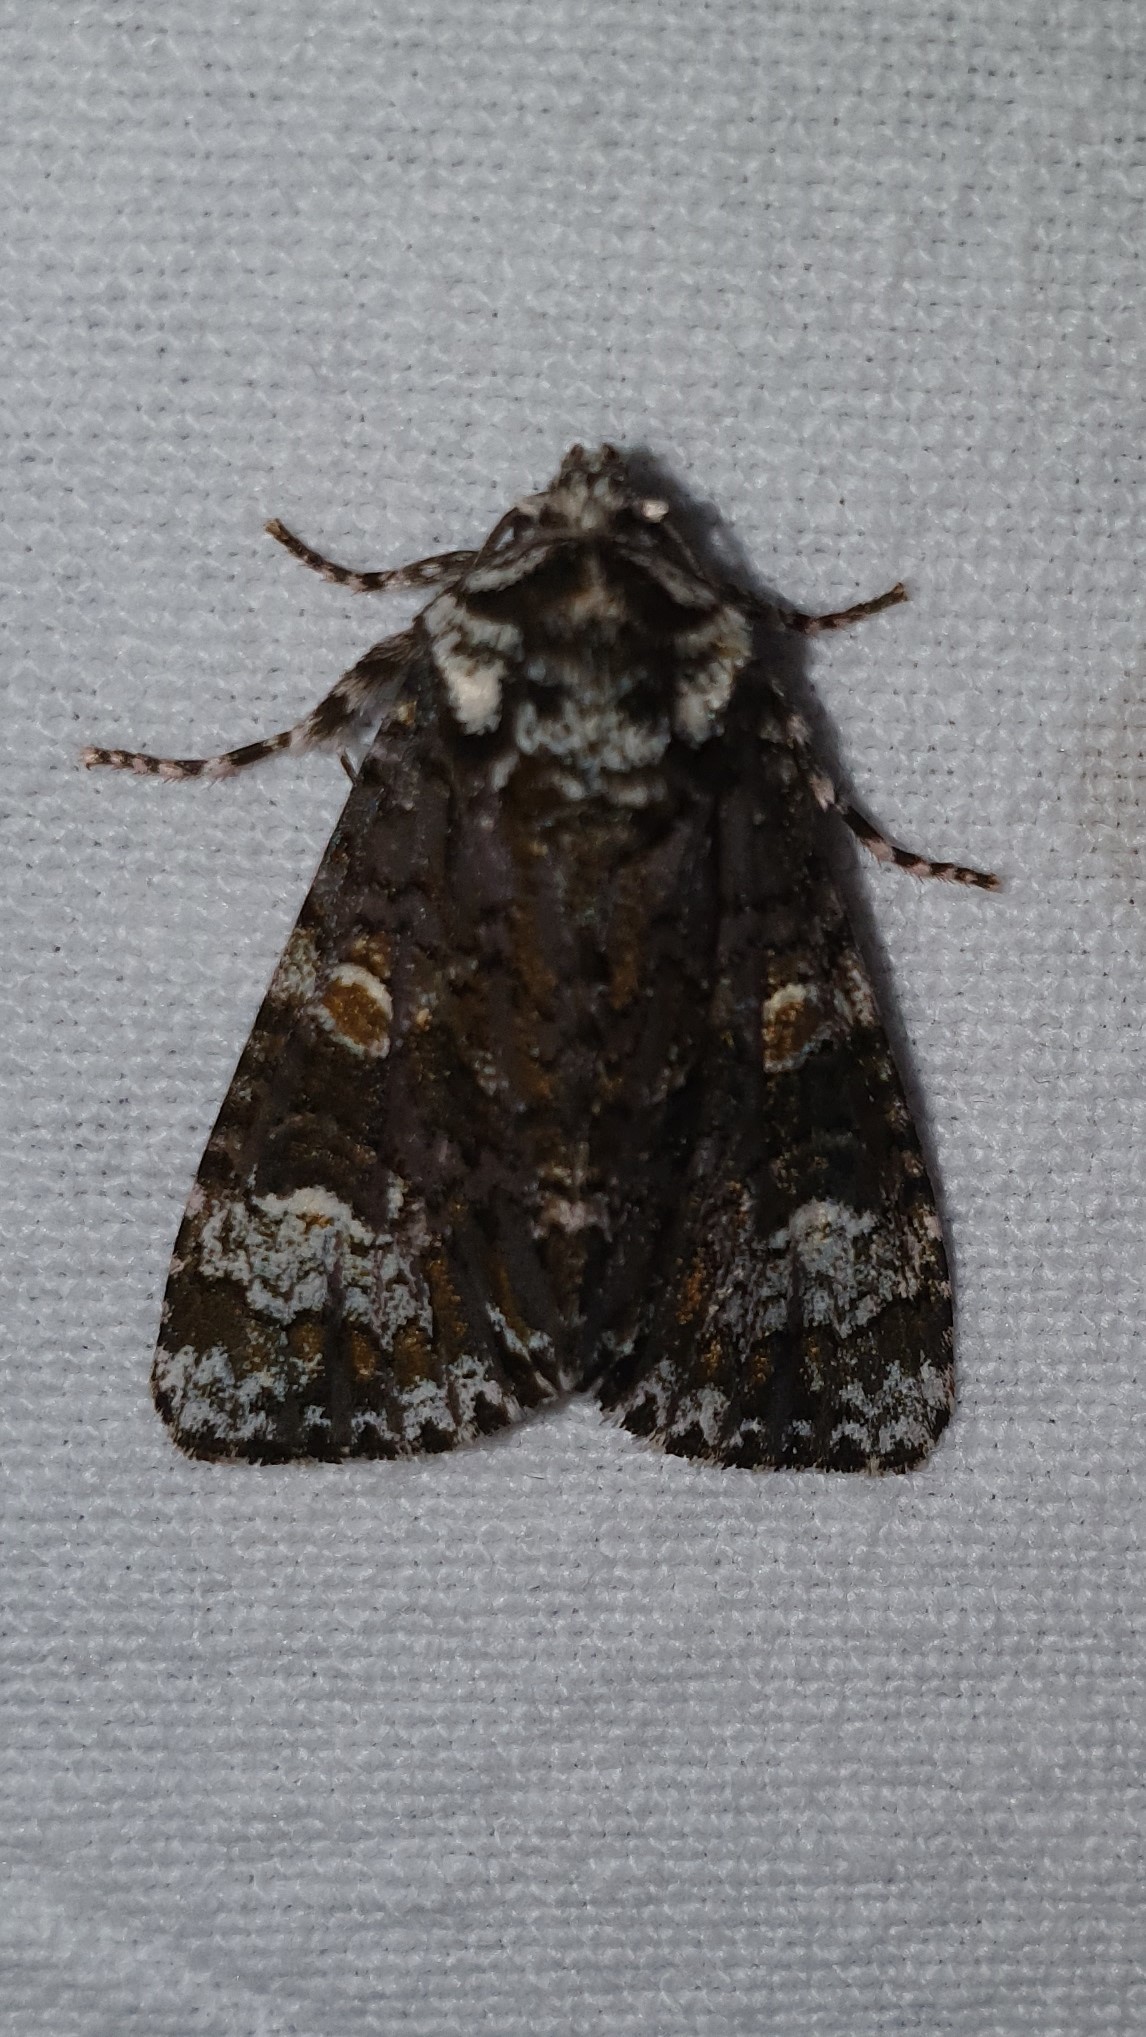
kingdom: Animalia
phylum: Arthropoda
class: Insecta
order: Lepidoptera
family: Noctuidae
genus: Craniophora
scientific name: Craniophora ligustri
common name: Coronet
